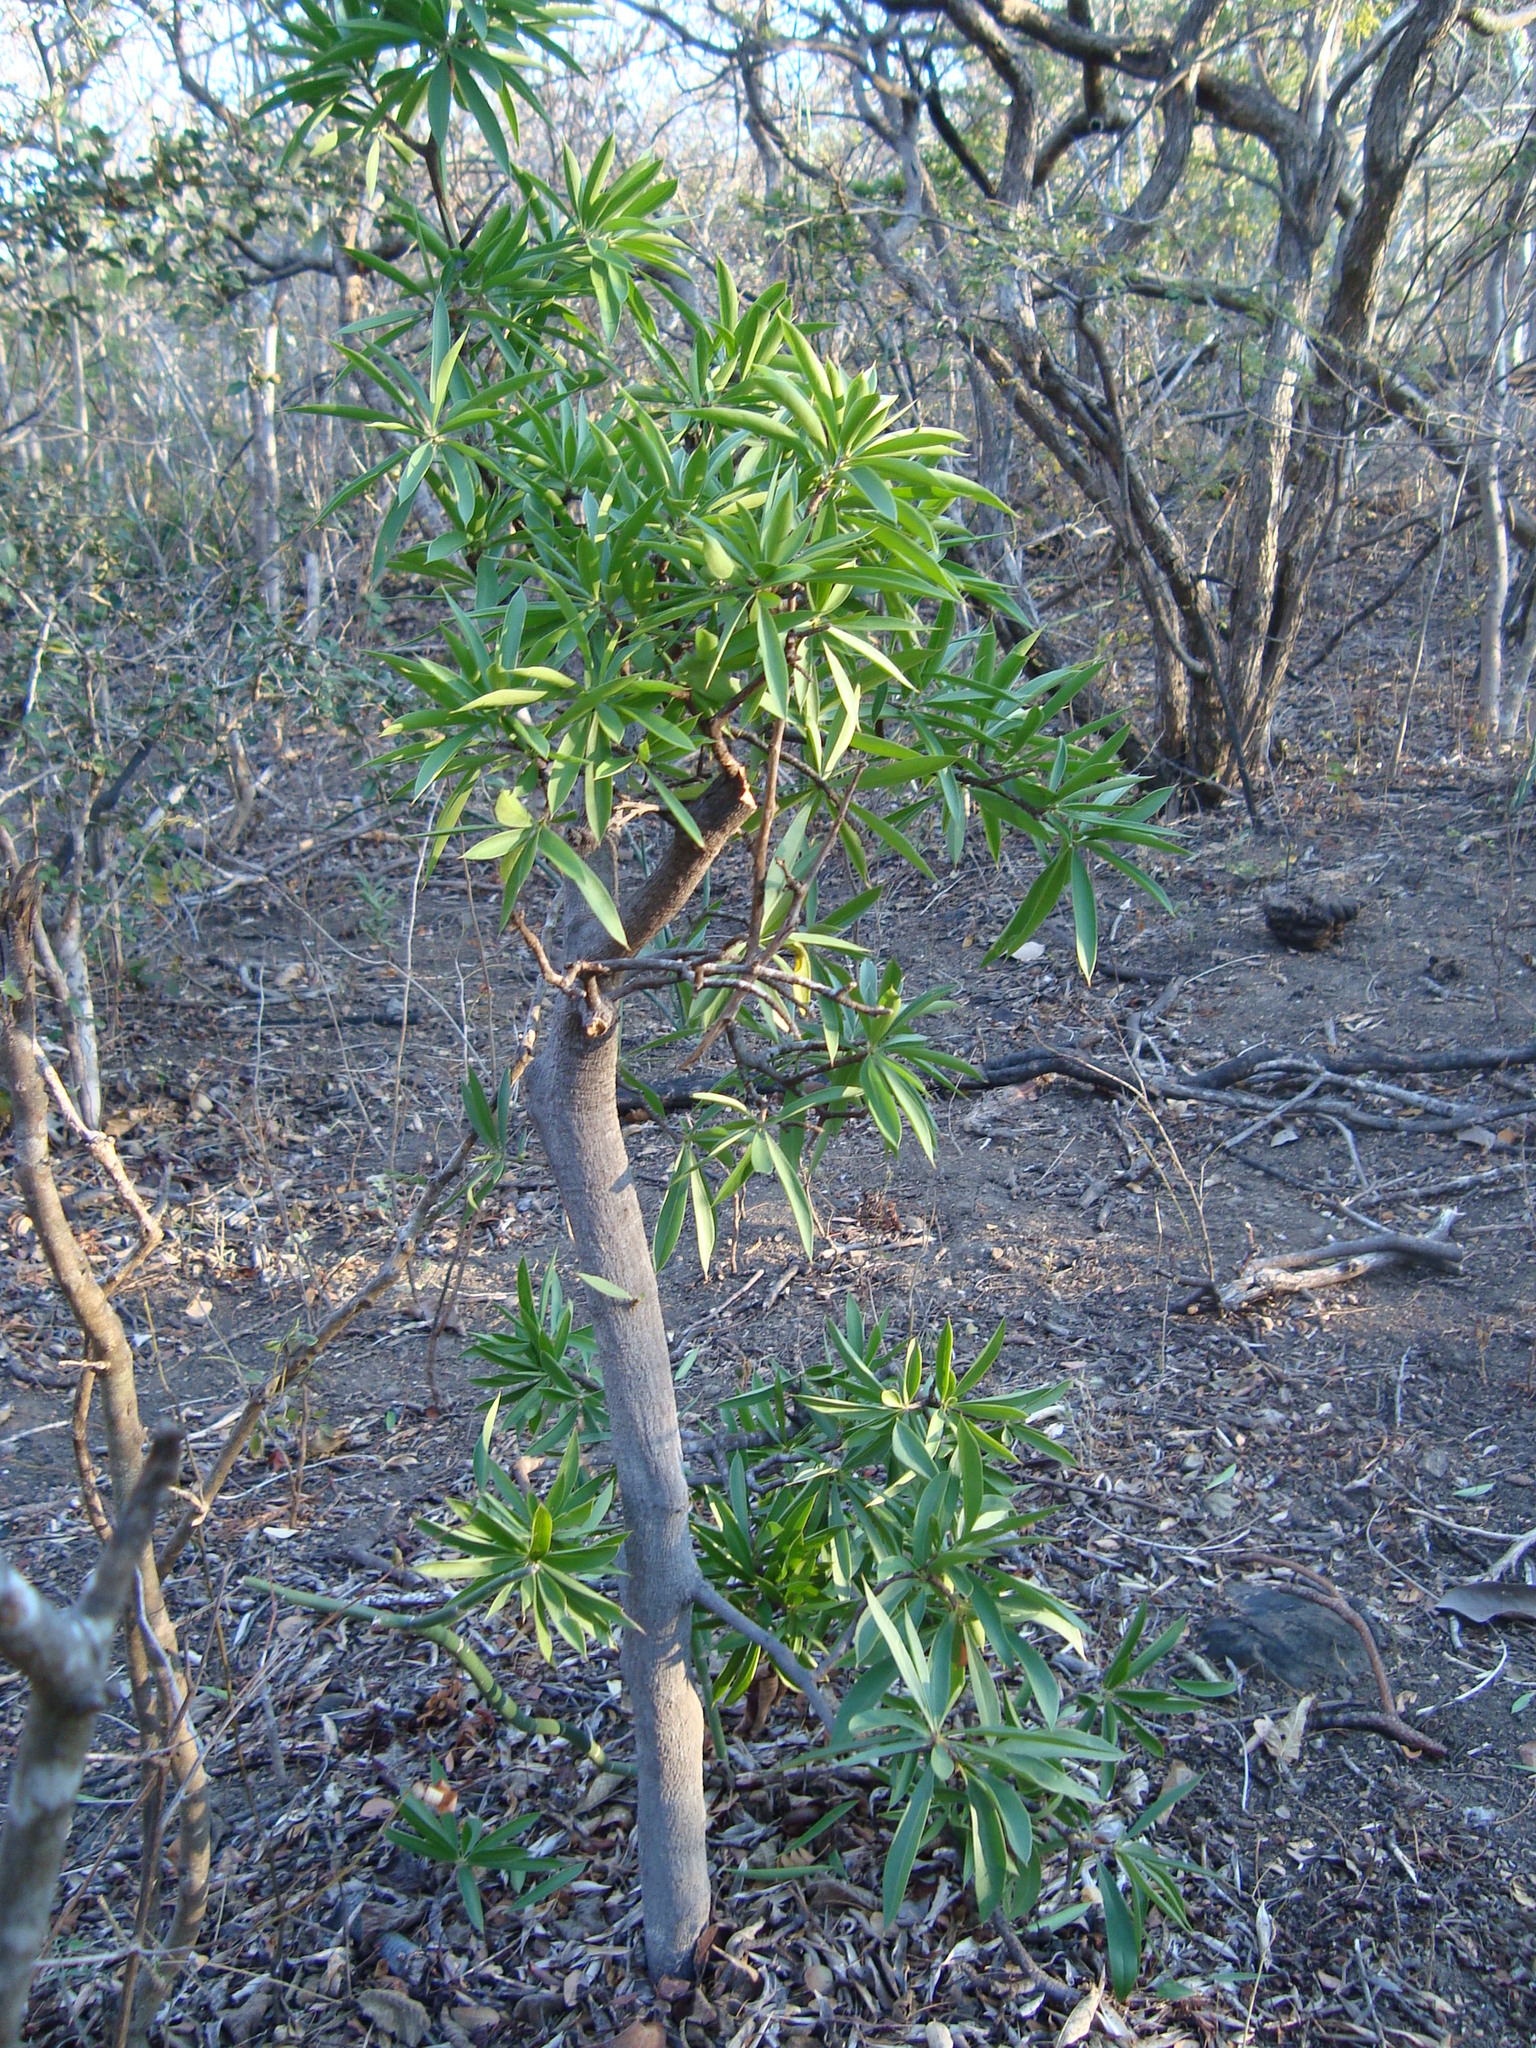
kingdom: Plantae
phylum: Tracheophyta
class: Magnoliopsida
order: Ericales
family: Primulaceae
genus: Bonellia
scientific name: Bonellia macrocarpa
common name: Primrose
